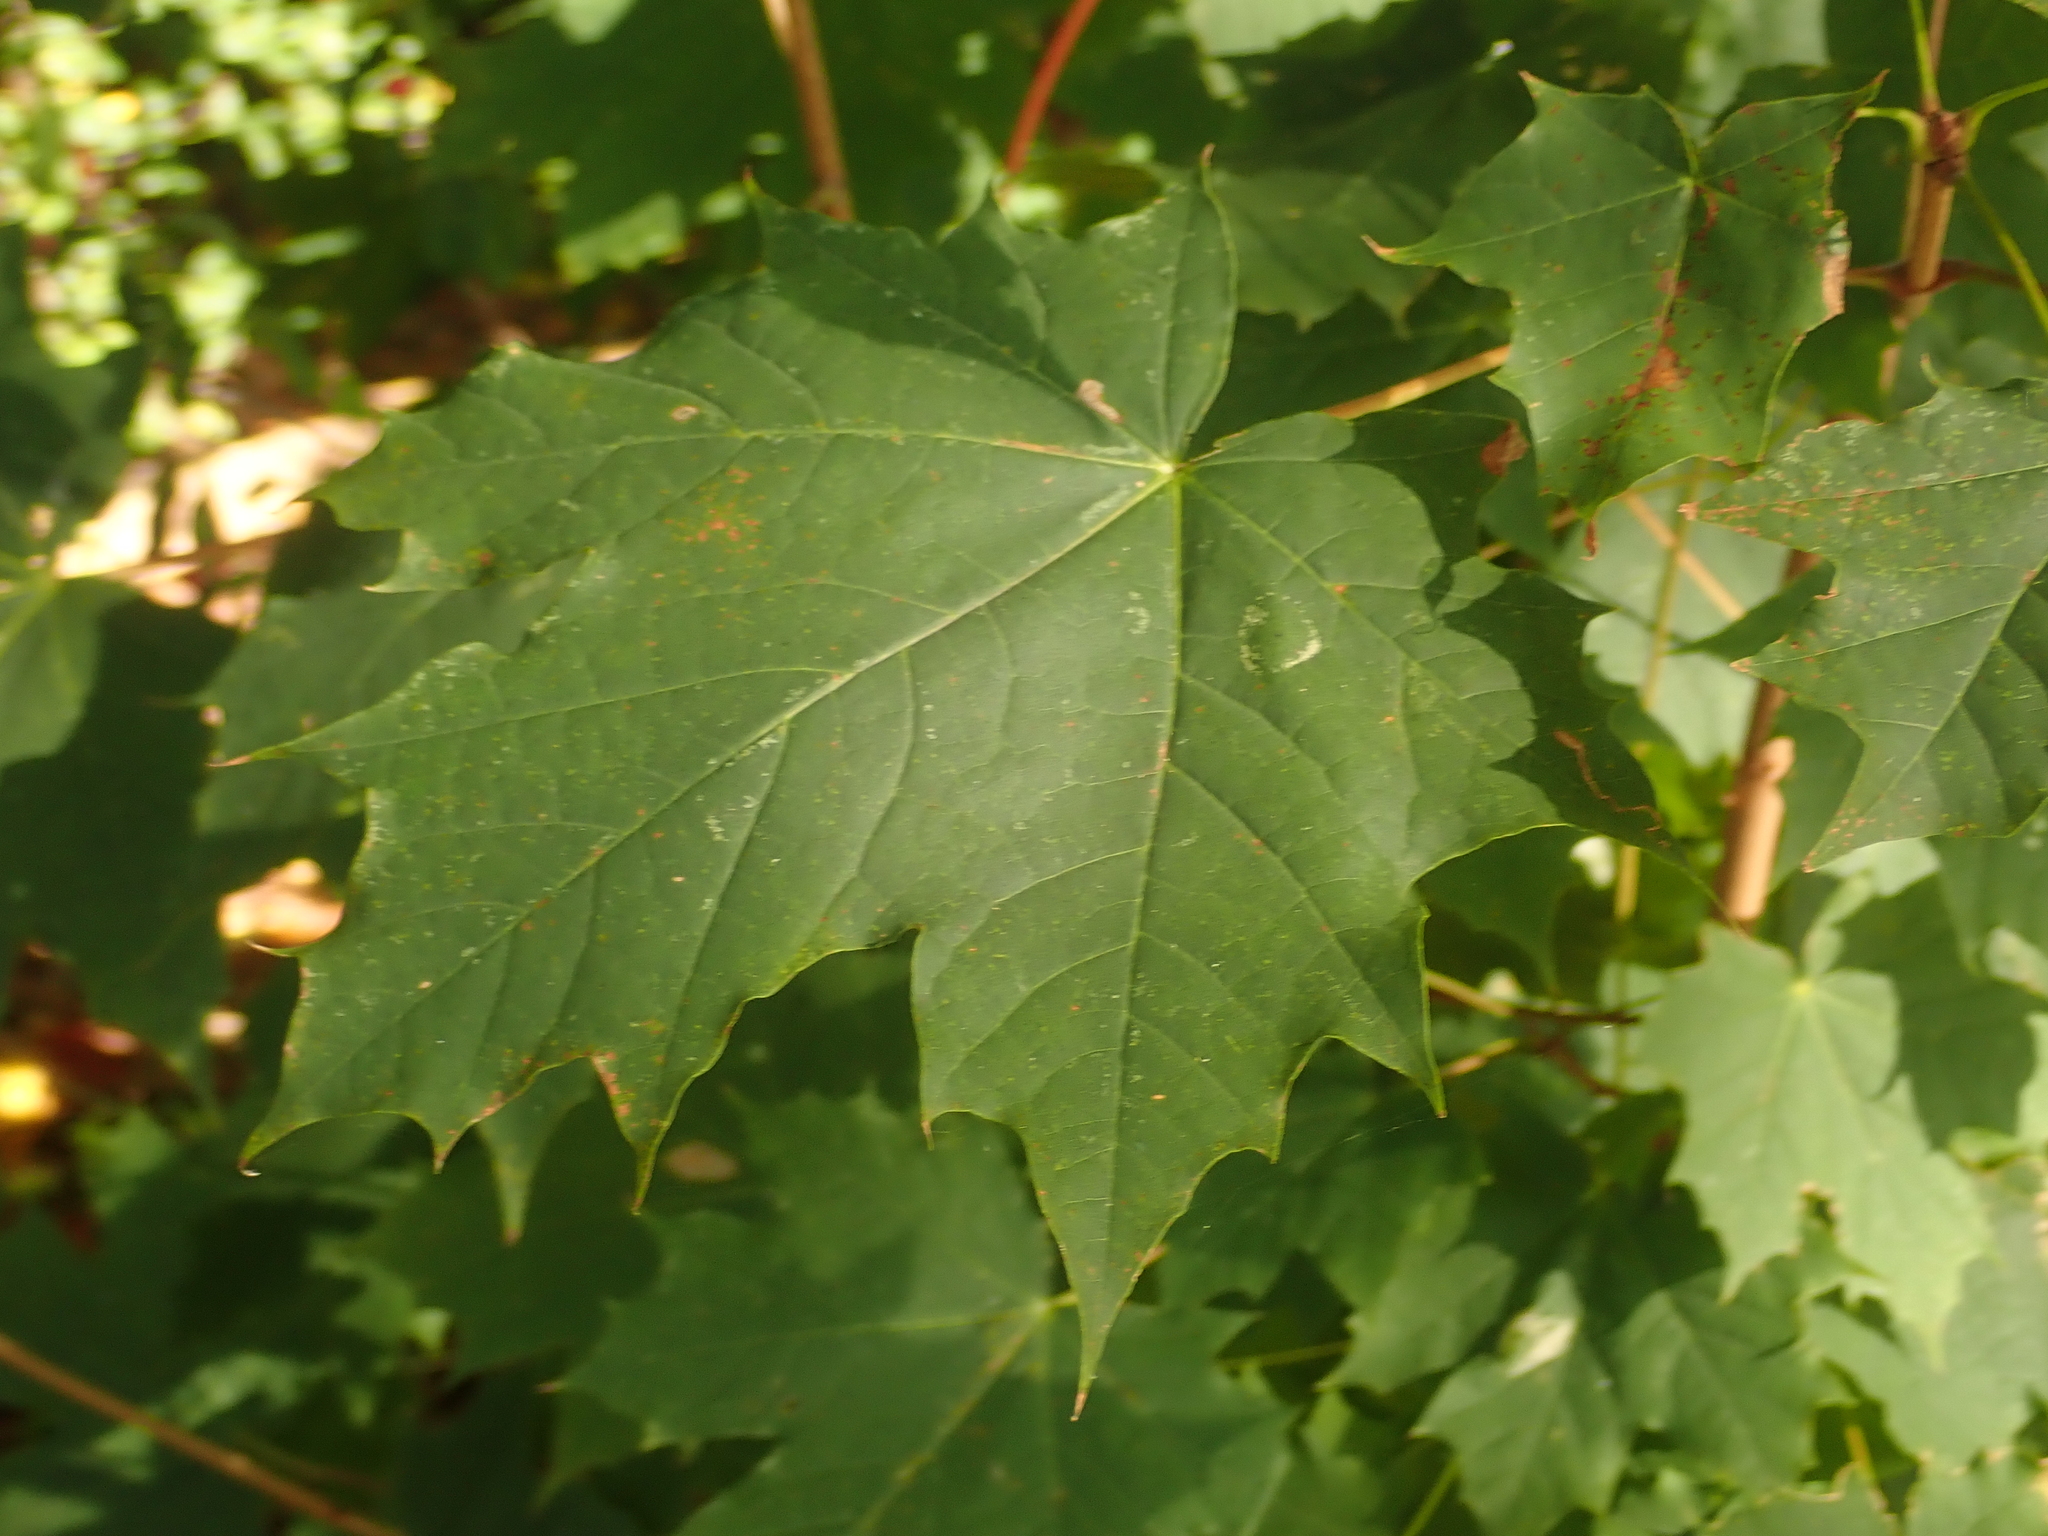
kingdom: Plantae
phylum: Tracheophyta
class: Magnoliopsida
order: Sapindales
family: Sapindaceae
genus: Acer
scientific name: Acer platanoides
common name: Norway maple
